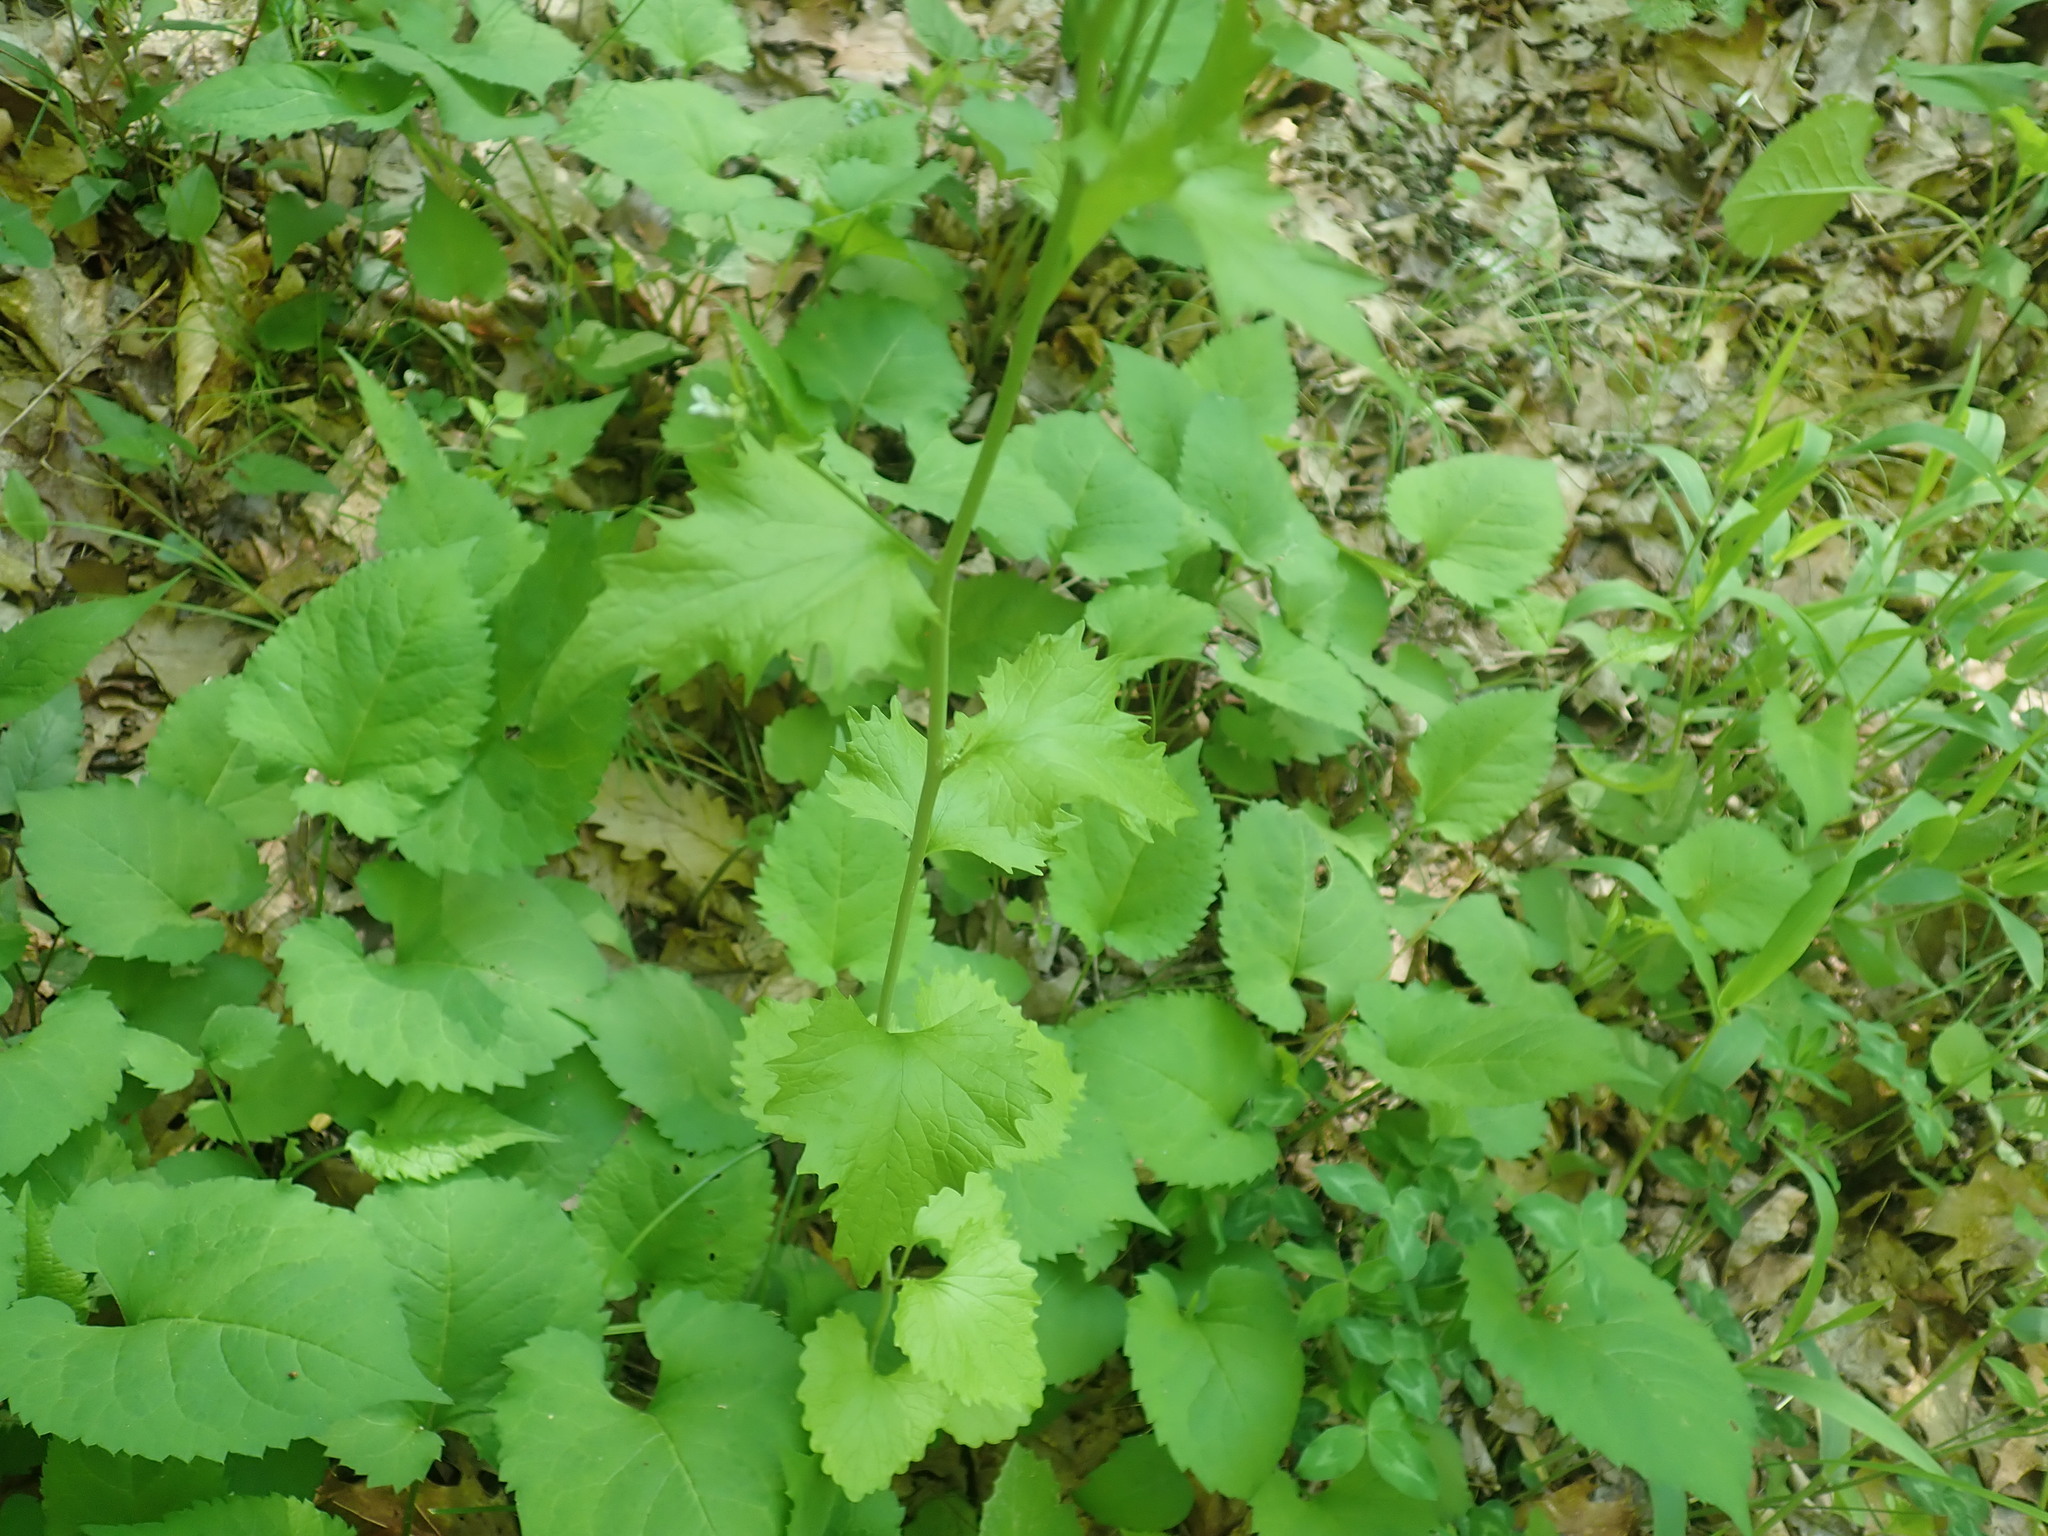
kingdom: Plantae
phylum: Tracheophyta
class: Magnoliopsida
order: Brassicales
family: Brassicaceae
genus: Alliaria
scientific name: Alliaria petiolata
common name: Garlic mustard
